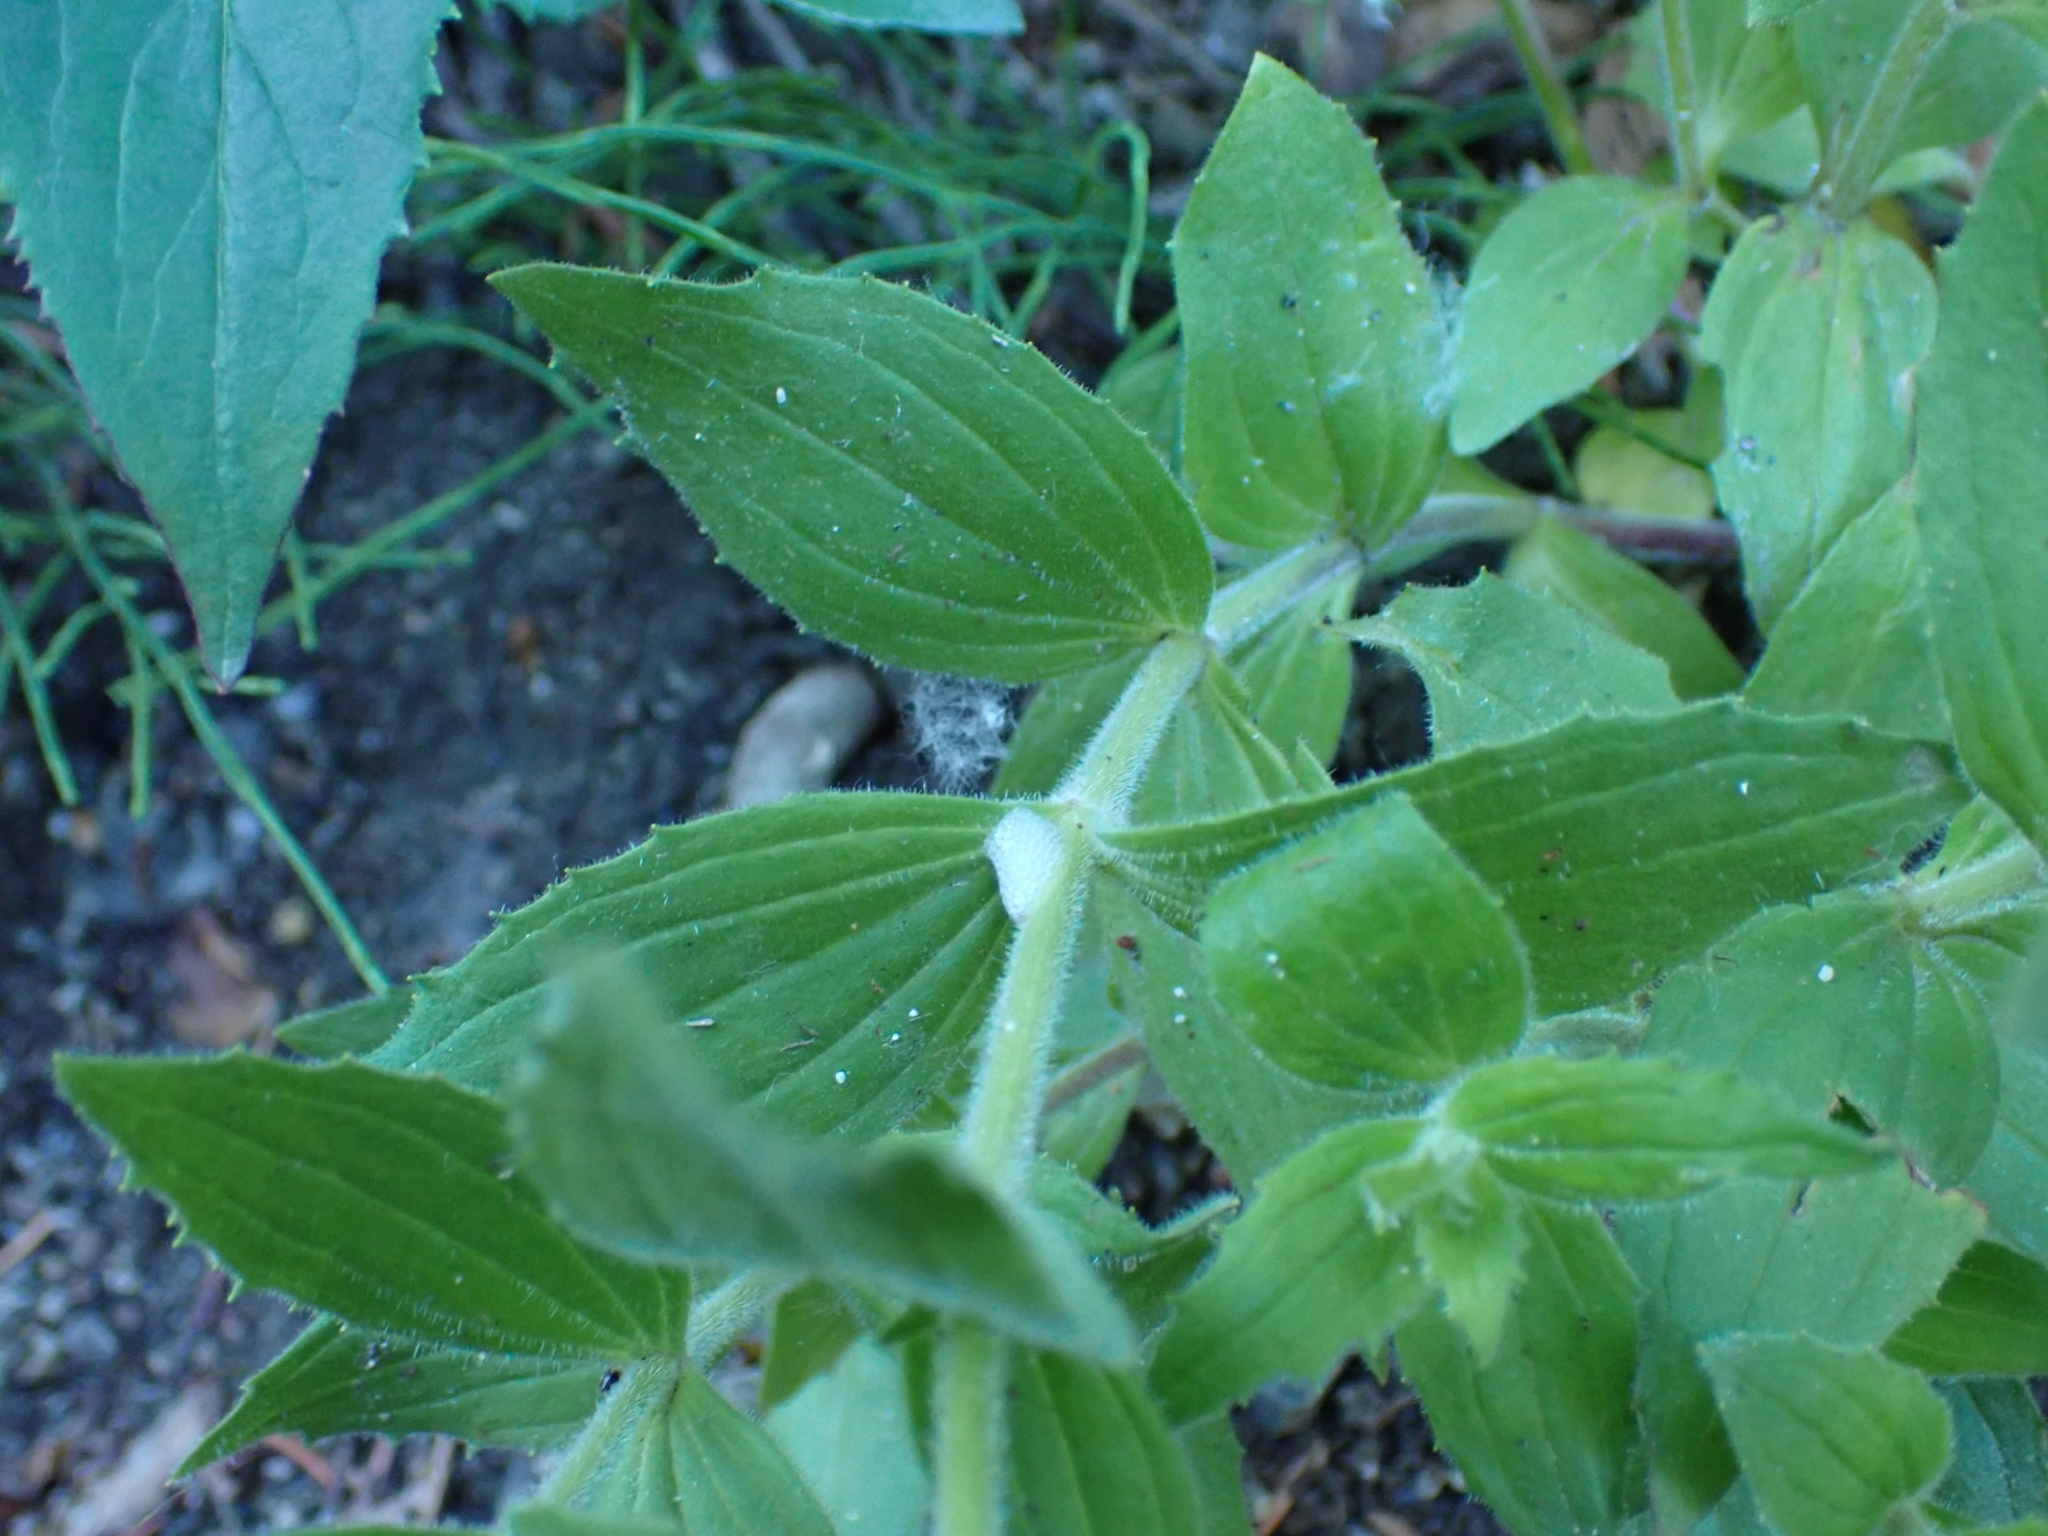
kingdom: Plantae
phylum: Tracheophyta
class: Magnoliopsida
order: Lamiales
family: Phrymaceae
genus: Erythranthe
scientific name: Erythranthe lewisii
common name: Lewis's monkey-flower
